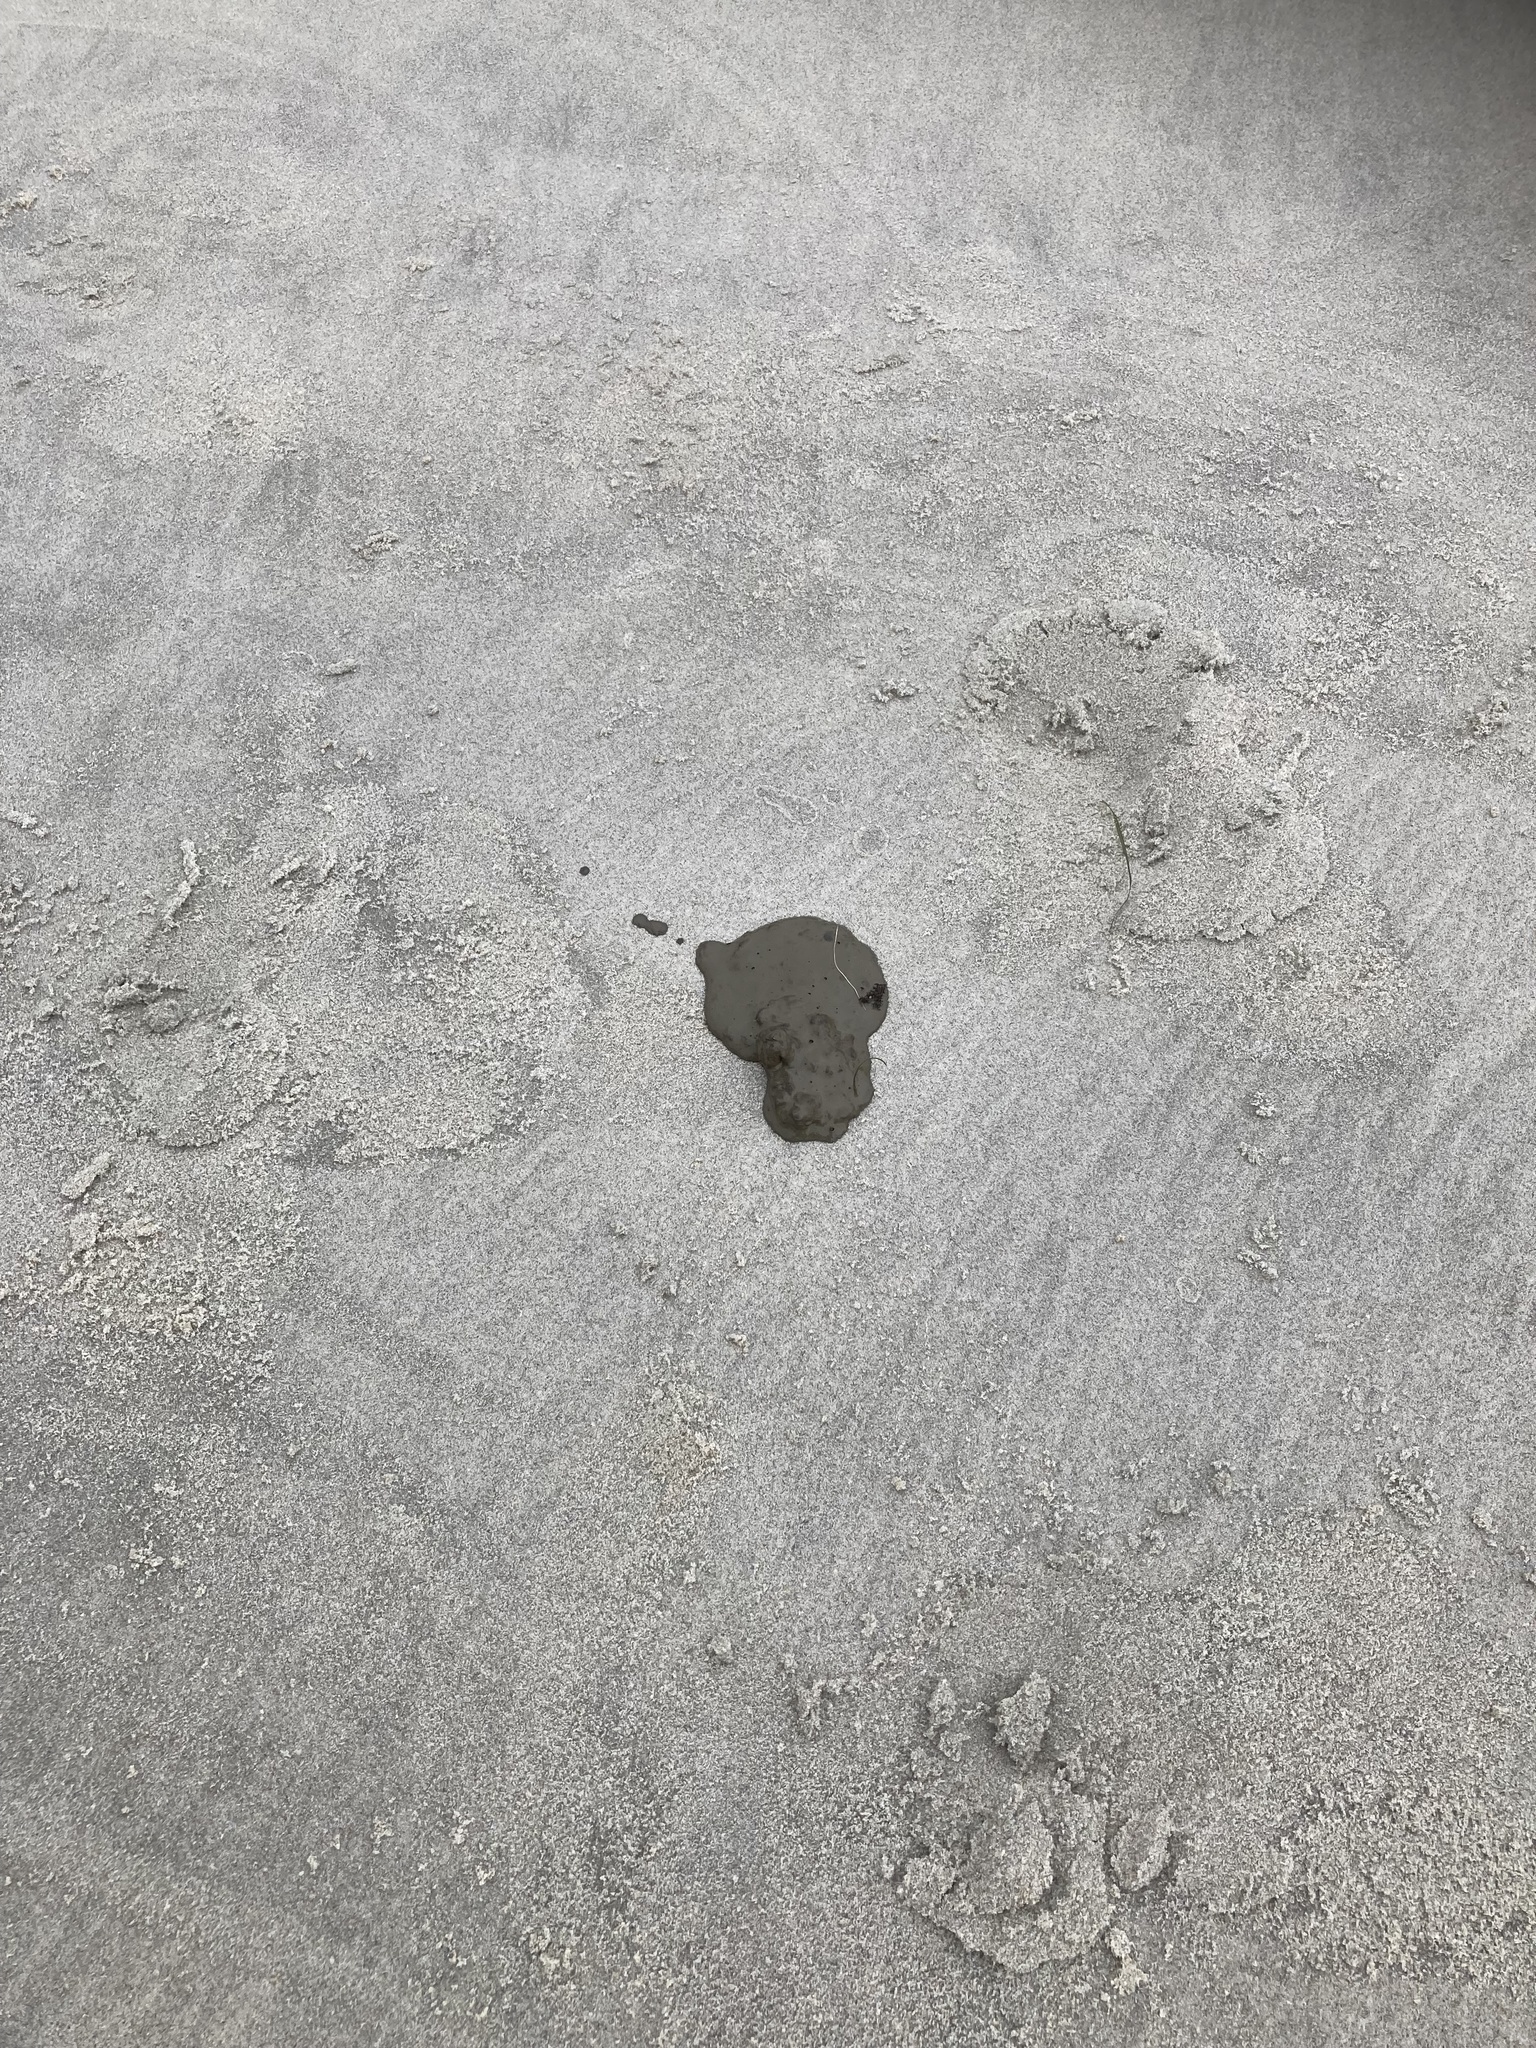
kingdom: Animalia
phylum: Chordata
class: Mammalia
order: Carnivora
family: Otariidae
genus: Phocarctos
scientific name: Phocarctos hookeri
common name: New zealand sea lion
